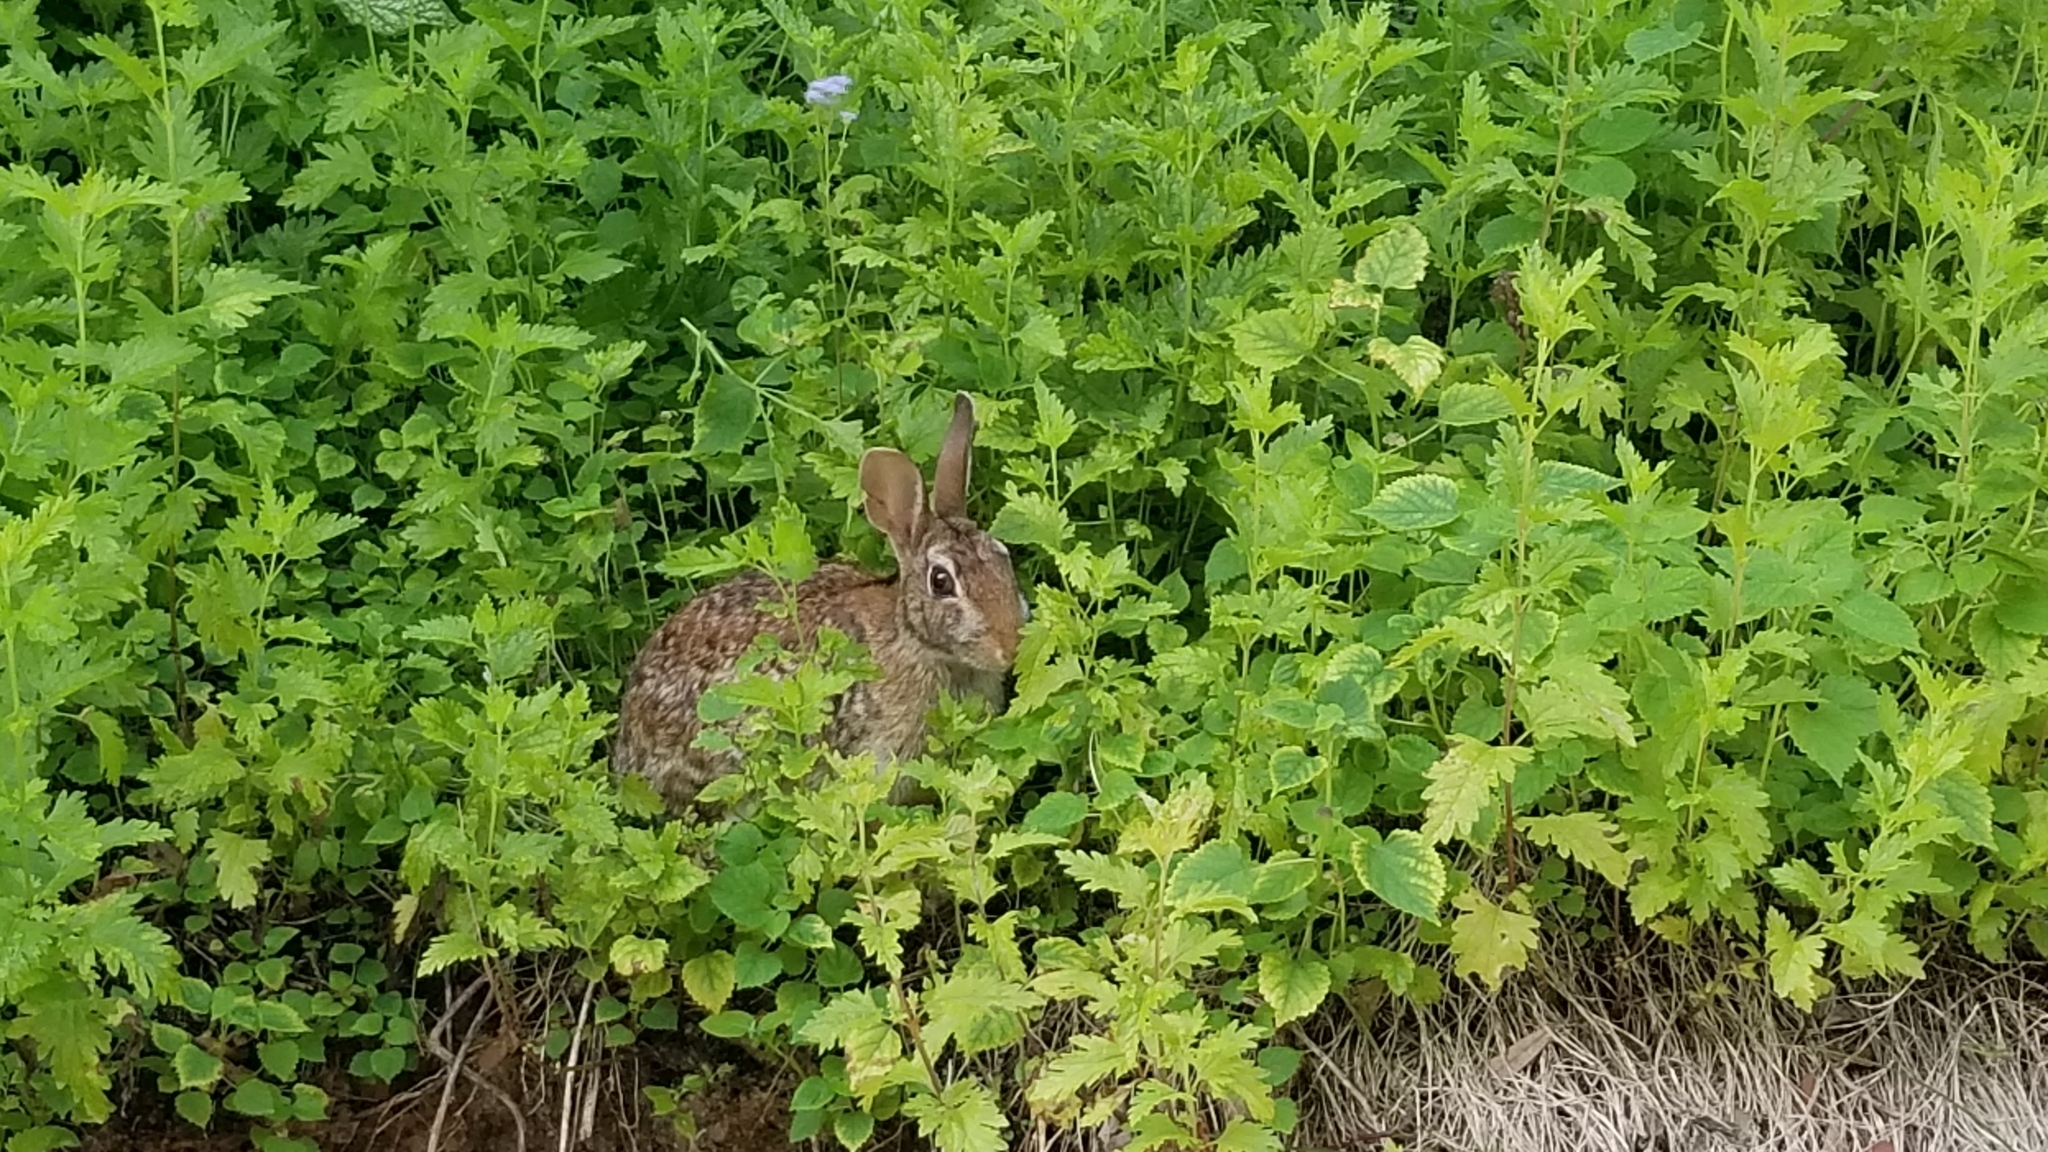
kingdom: Animalia
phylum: Chordata
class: Mammalia
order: Lagomorpha
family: Leporidae
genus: Sylvilagus
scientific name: Sylvilagus aquaticus
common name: Swamp rabbit
